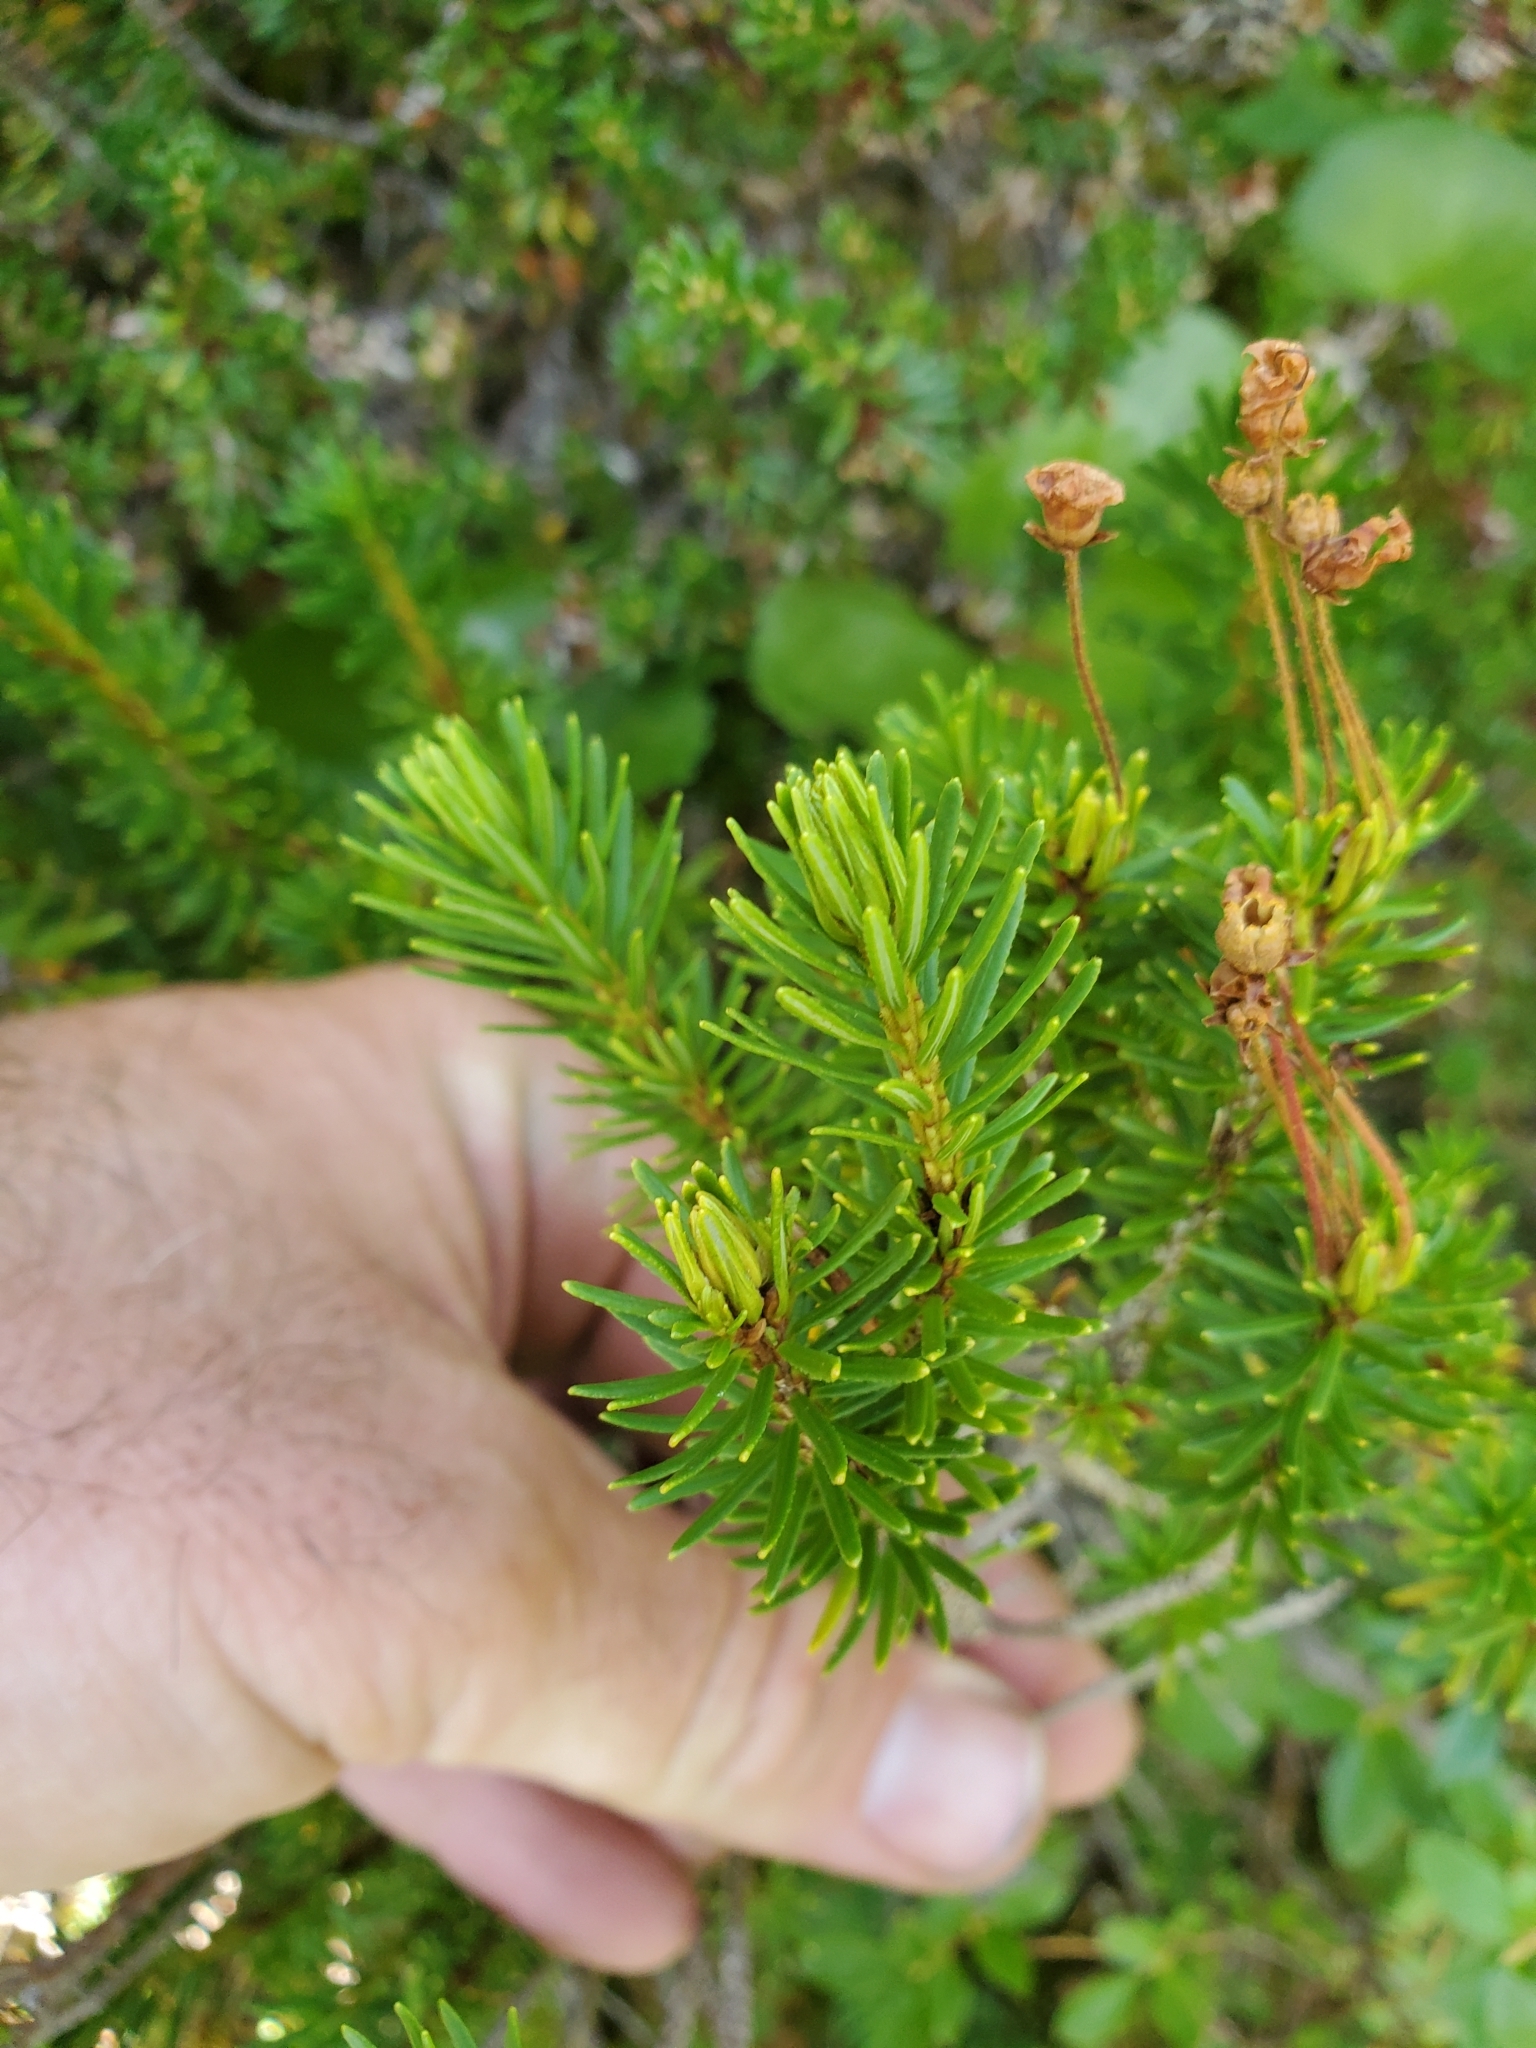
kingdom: Plantae
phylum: Tracheophyta
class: Magnoliopsida
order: Ericales
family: Ericaceae
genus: Phyllodoce
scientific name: Phyllodoce empetriformis
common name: Pink mountain heather
